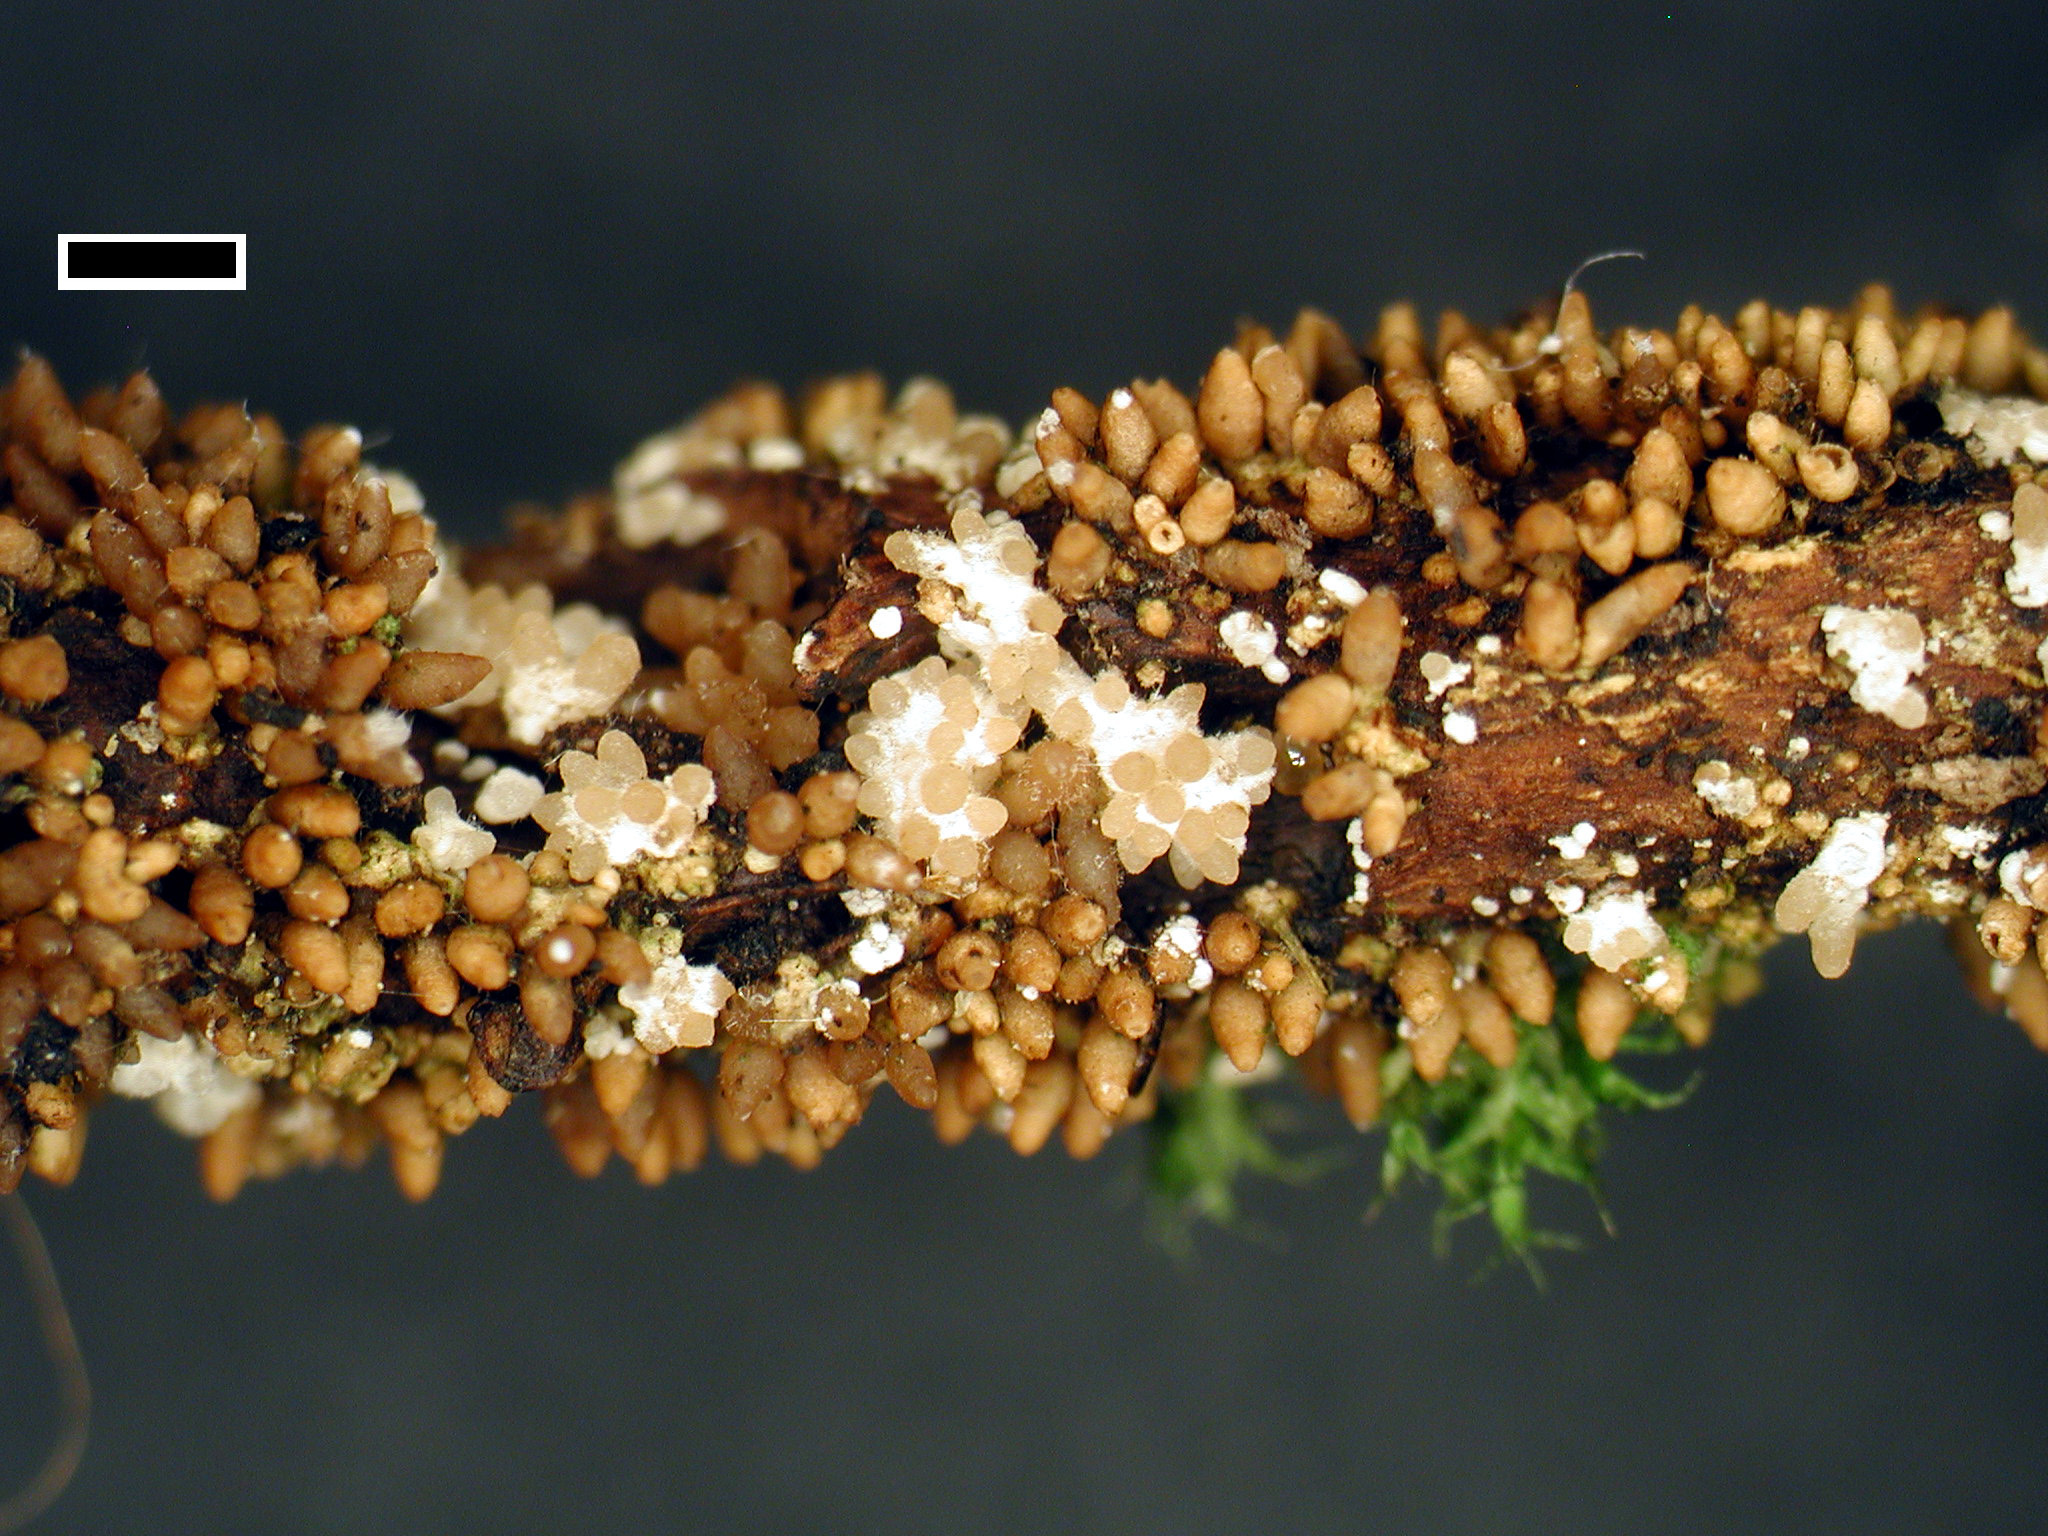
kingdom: Fungi
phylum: Ascomycota
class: Sordariomycetes
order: Hypocreales
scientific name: Hypocreales
